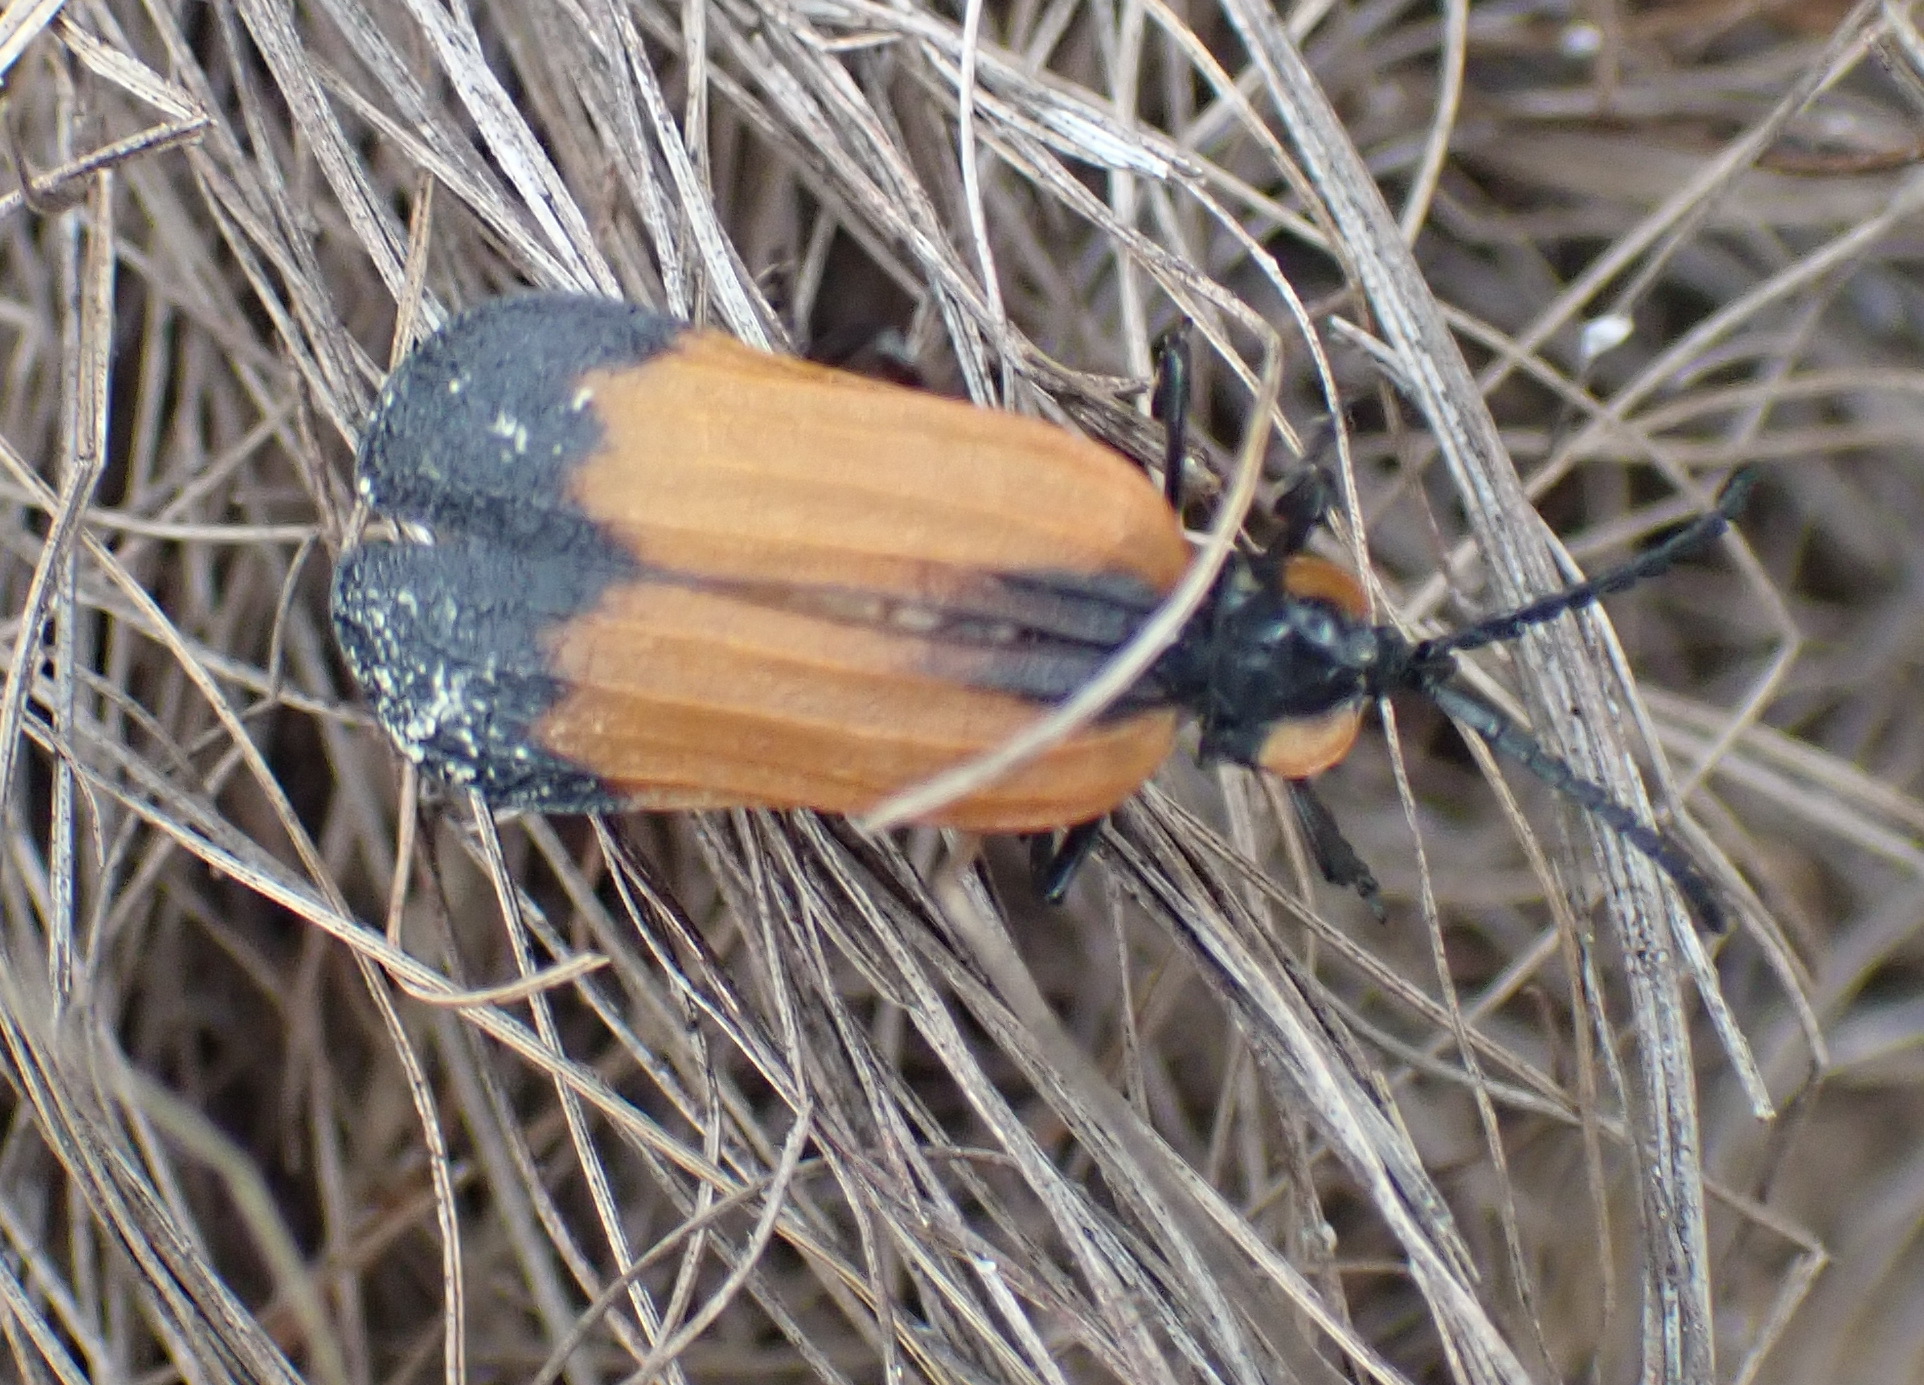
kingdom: Animalia
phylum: Arthropoda
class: Insecta
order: Coleoptera
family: Lycidae
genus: Lycus
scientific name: Lycus
